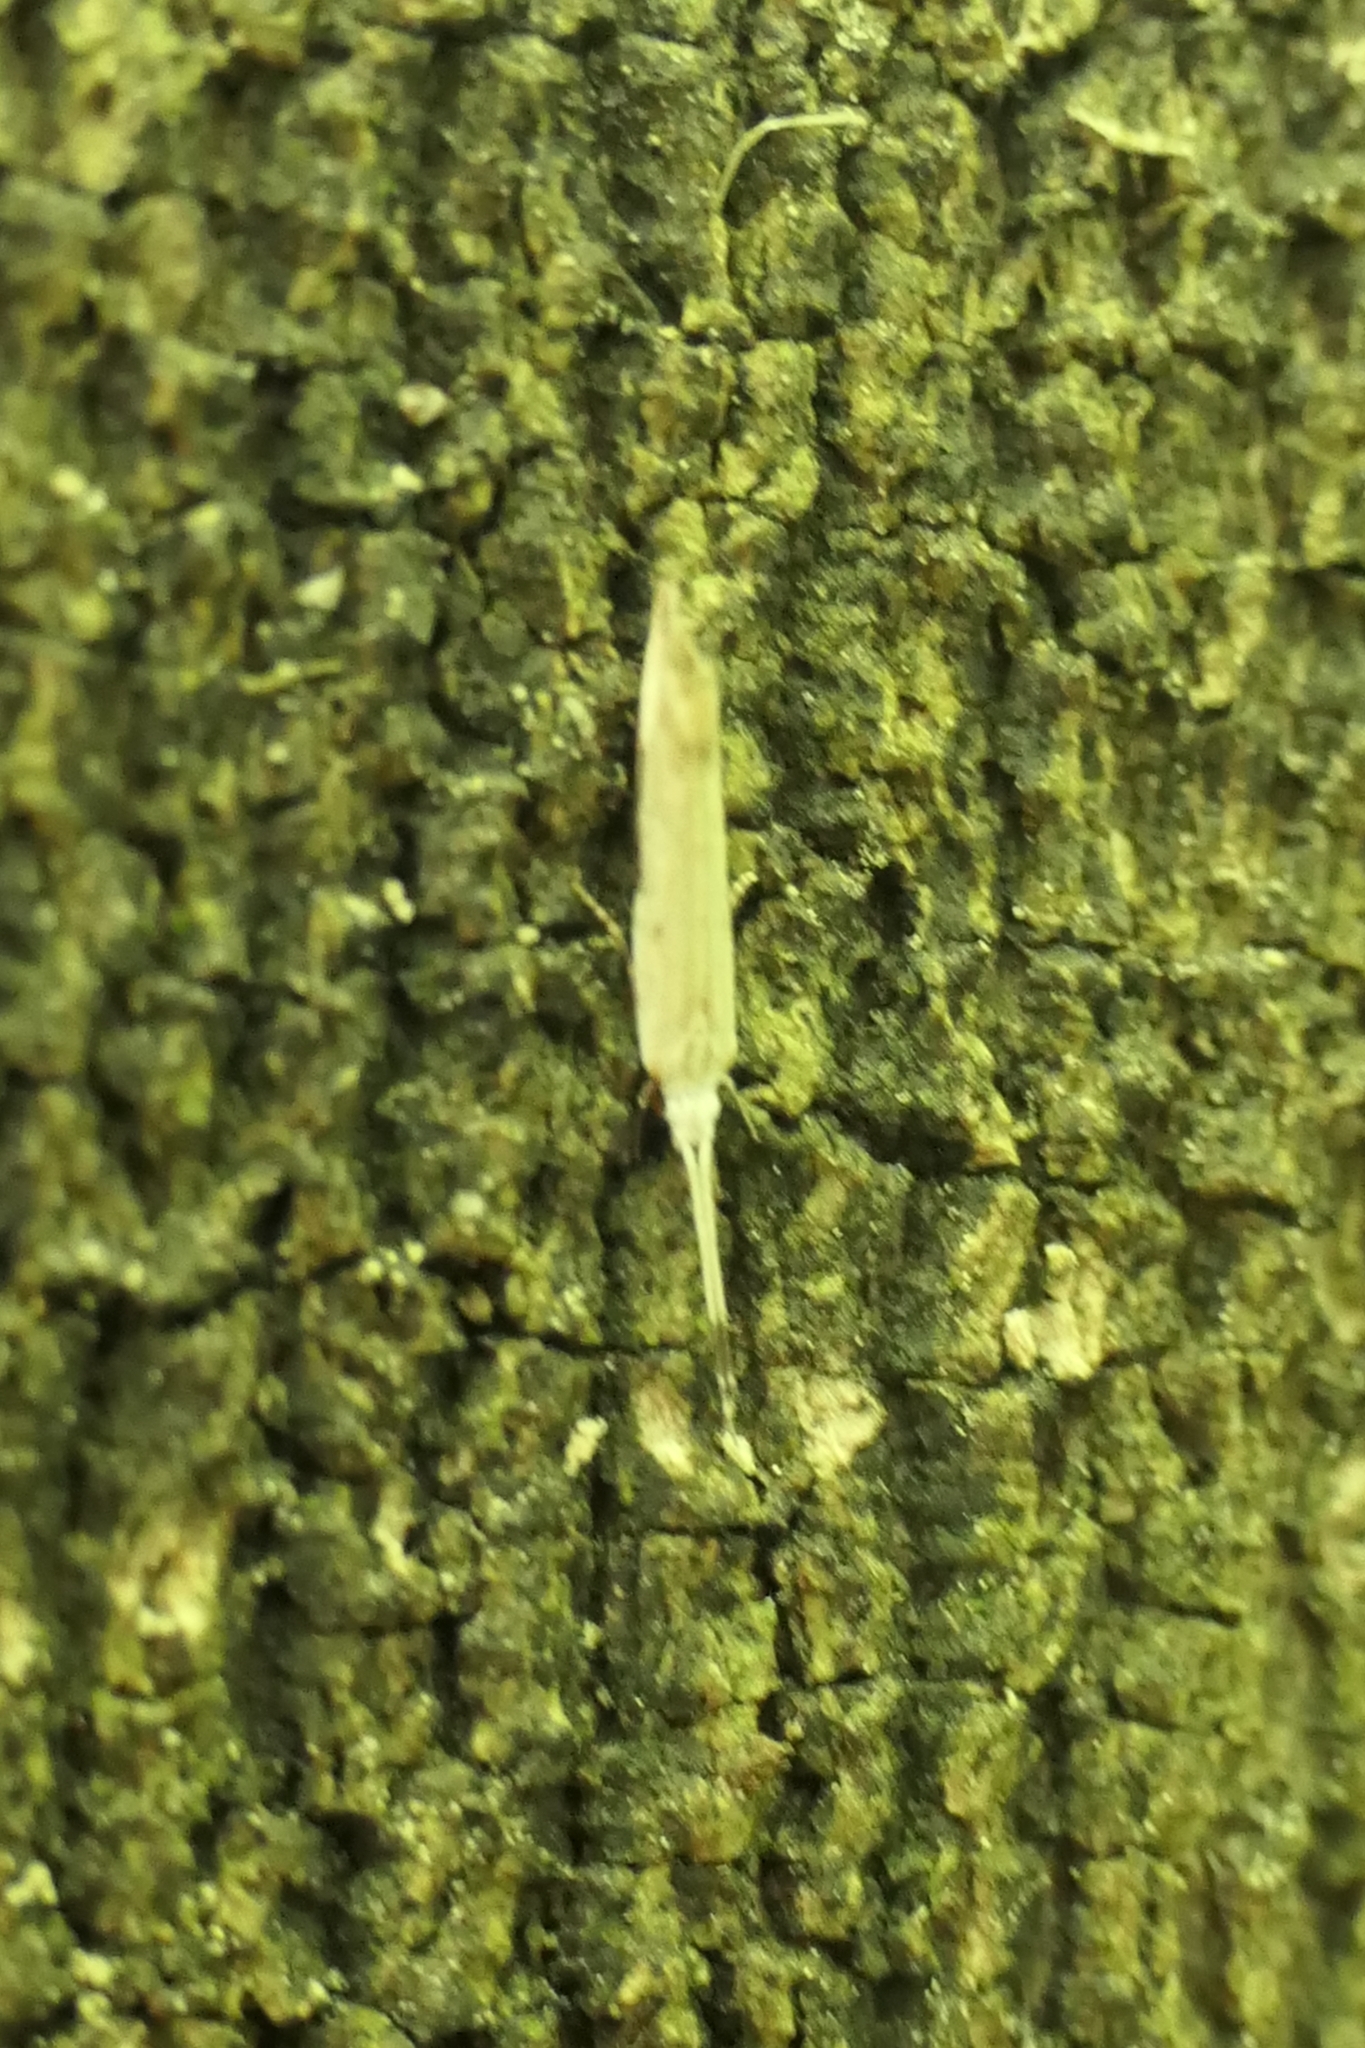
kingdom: Animalia
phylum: Arthropoda
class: Insecta
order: Lepidoptera
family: Tineidae
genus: Sagephora
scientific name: Sagephora phortegella
